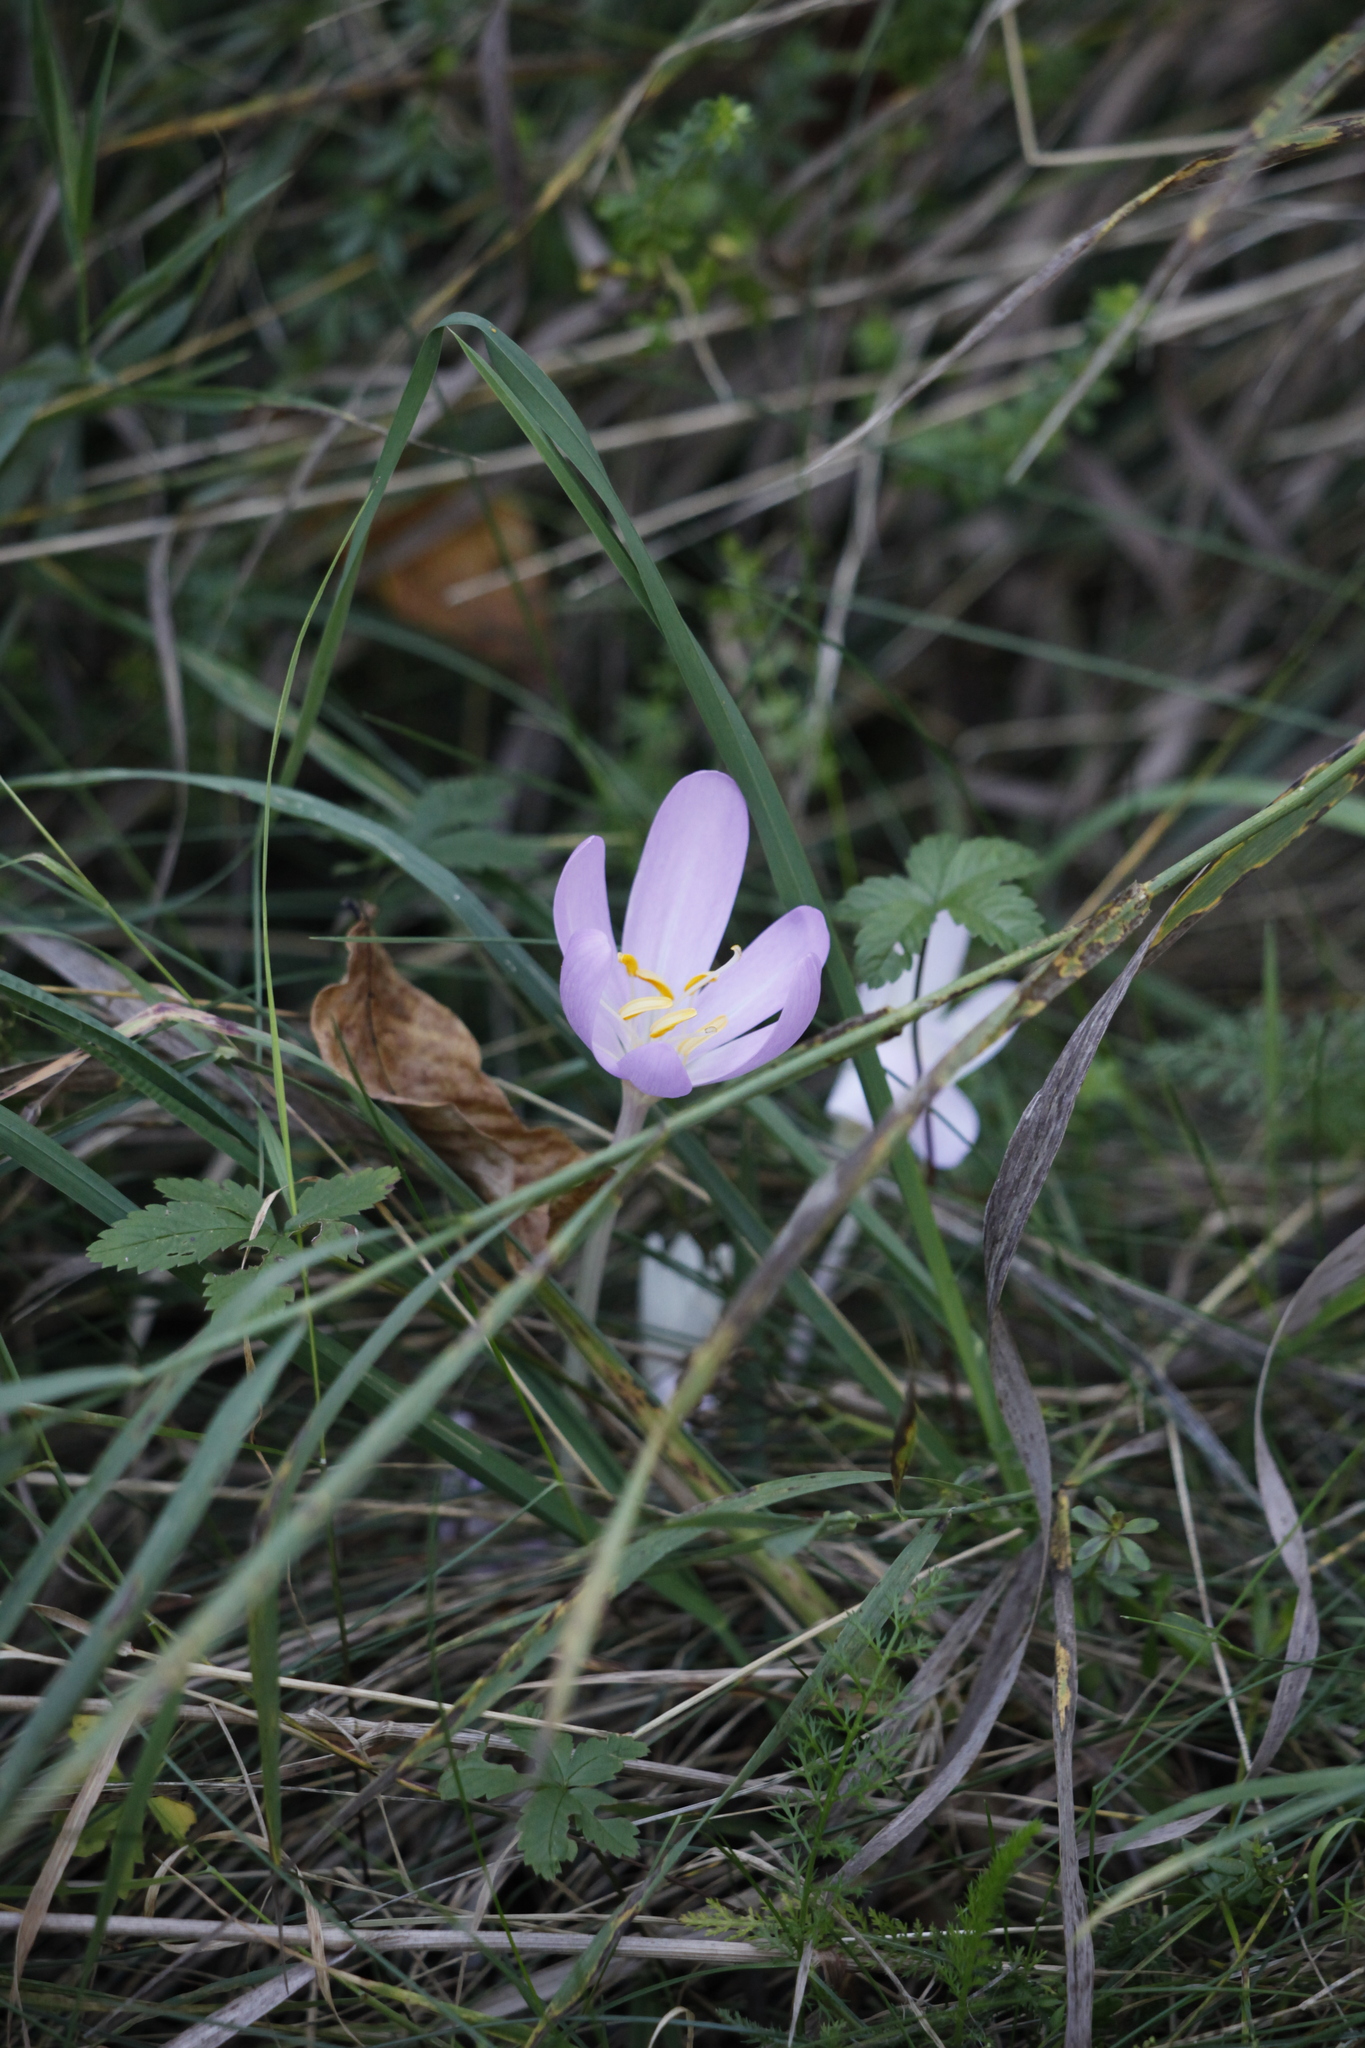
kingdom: Plantae
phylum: Tracheophyta
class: Liliopsida
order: Liliales
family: Colchicaceae
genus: Colchicum
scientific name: Colchicum autumnale
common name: Autumn crocus
